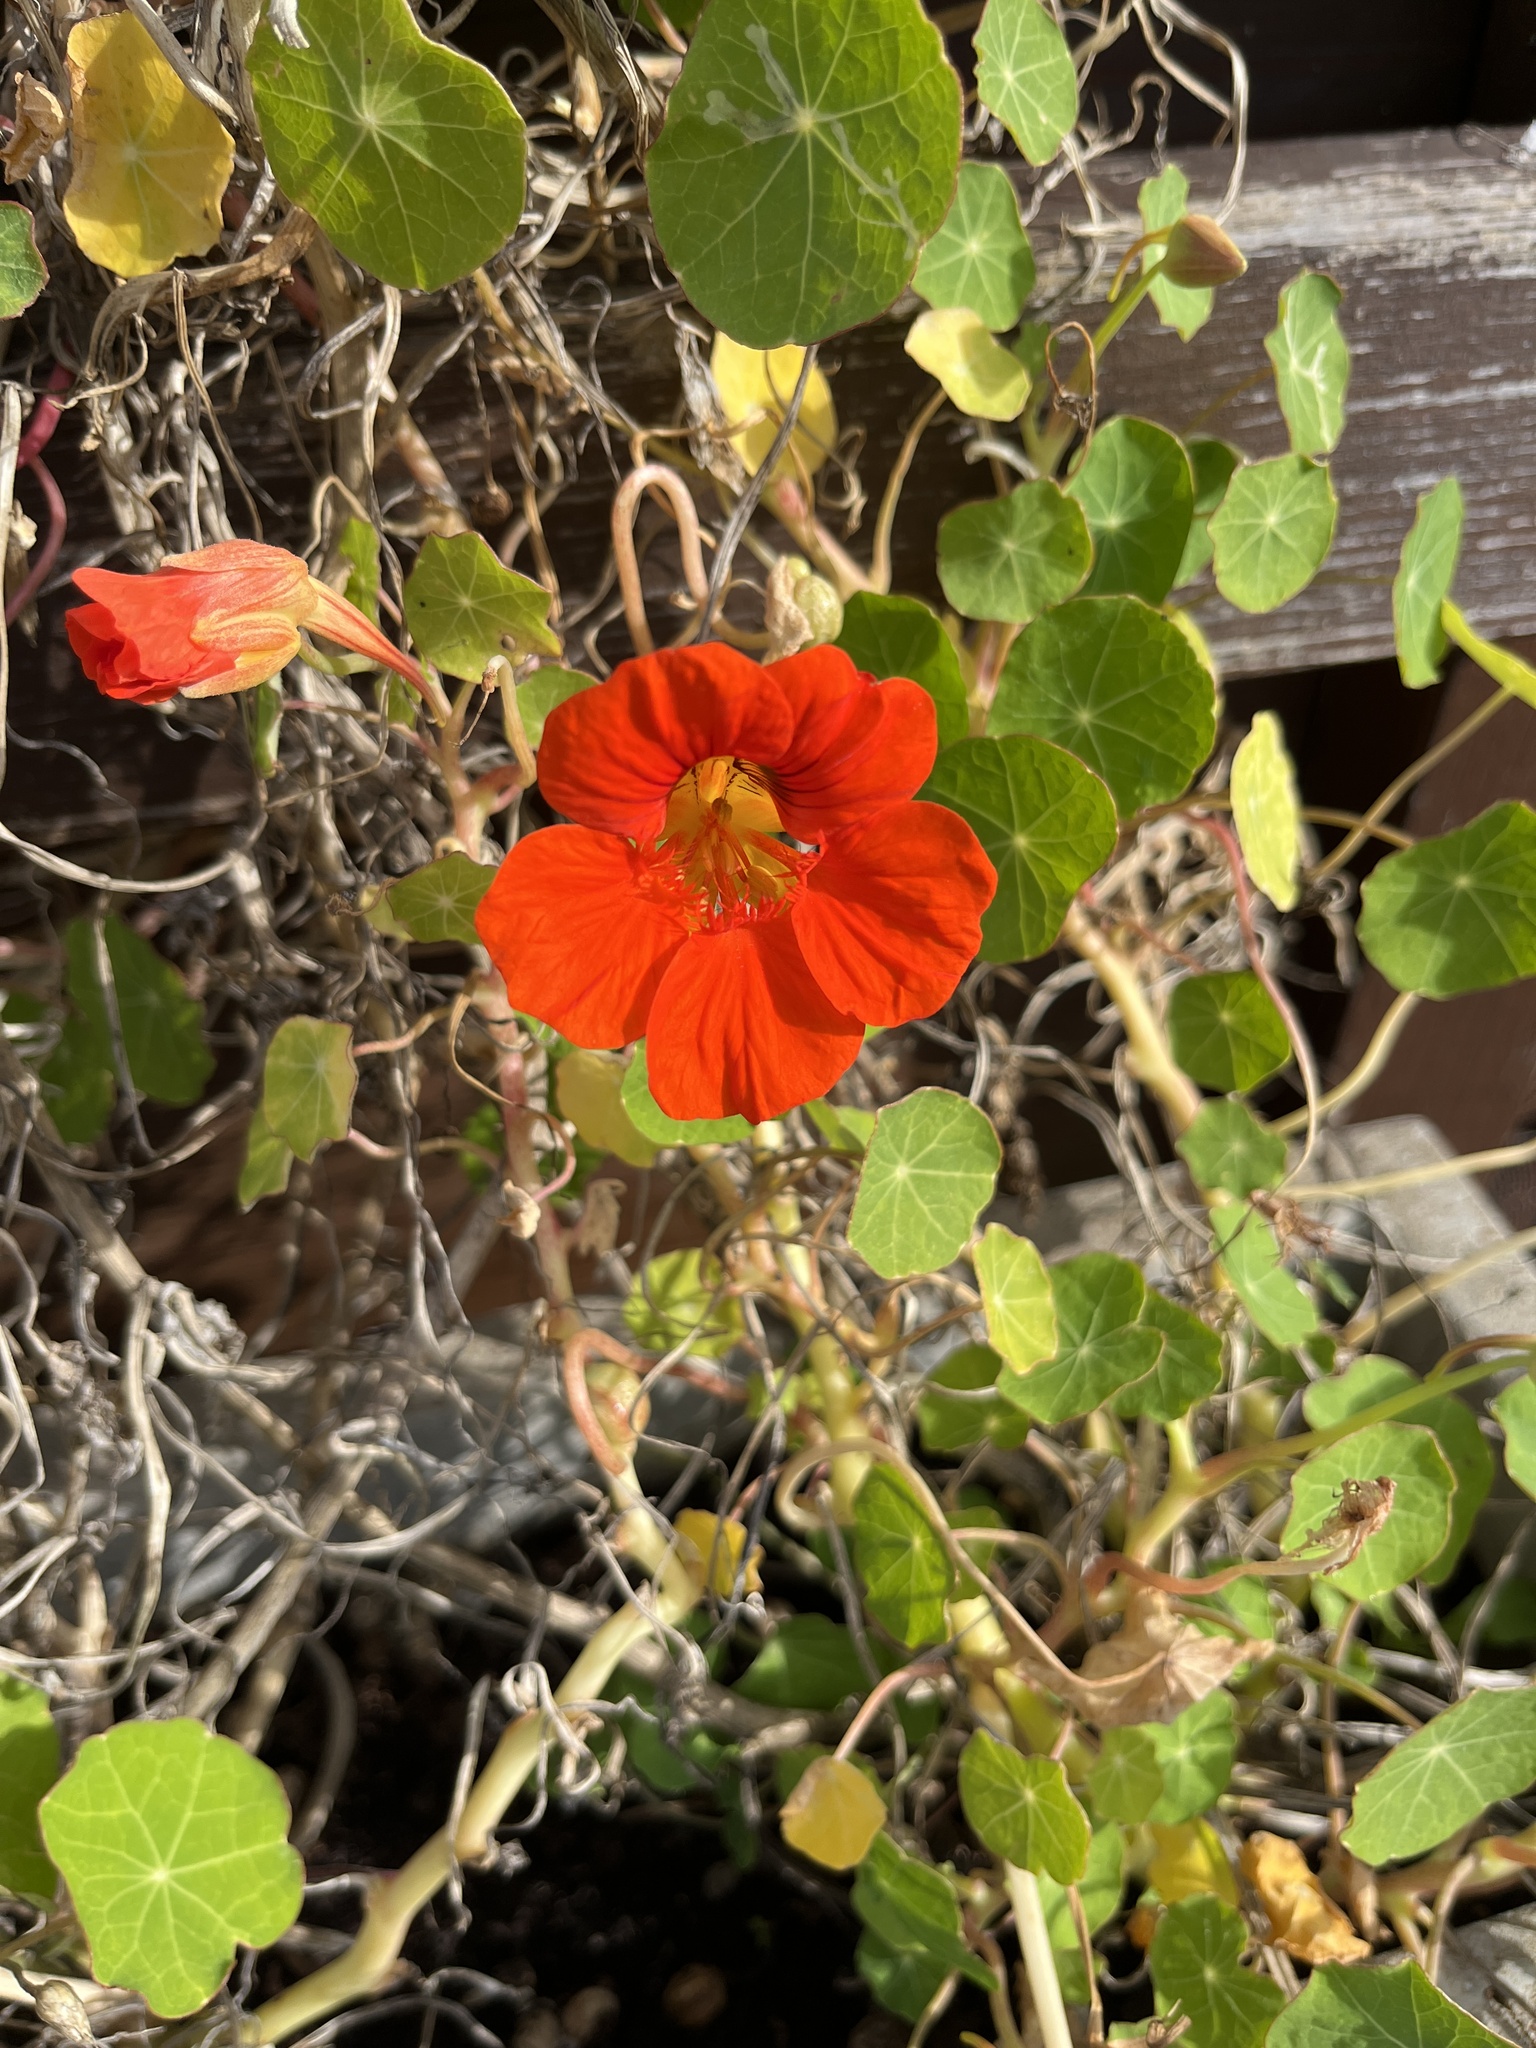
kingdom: Plantae
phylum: Tracheophyta
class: Magnoliopsida
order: Brassicales
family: Tropaeolaceae
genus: Tropaeolum
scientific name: Tropaeolum majus
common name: Nasturtium
